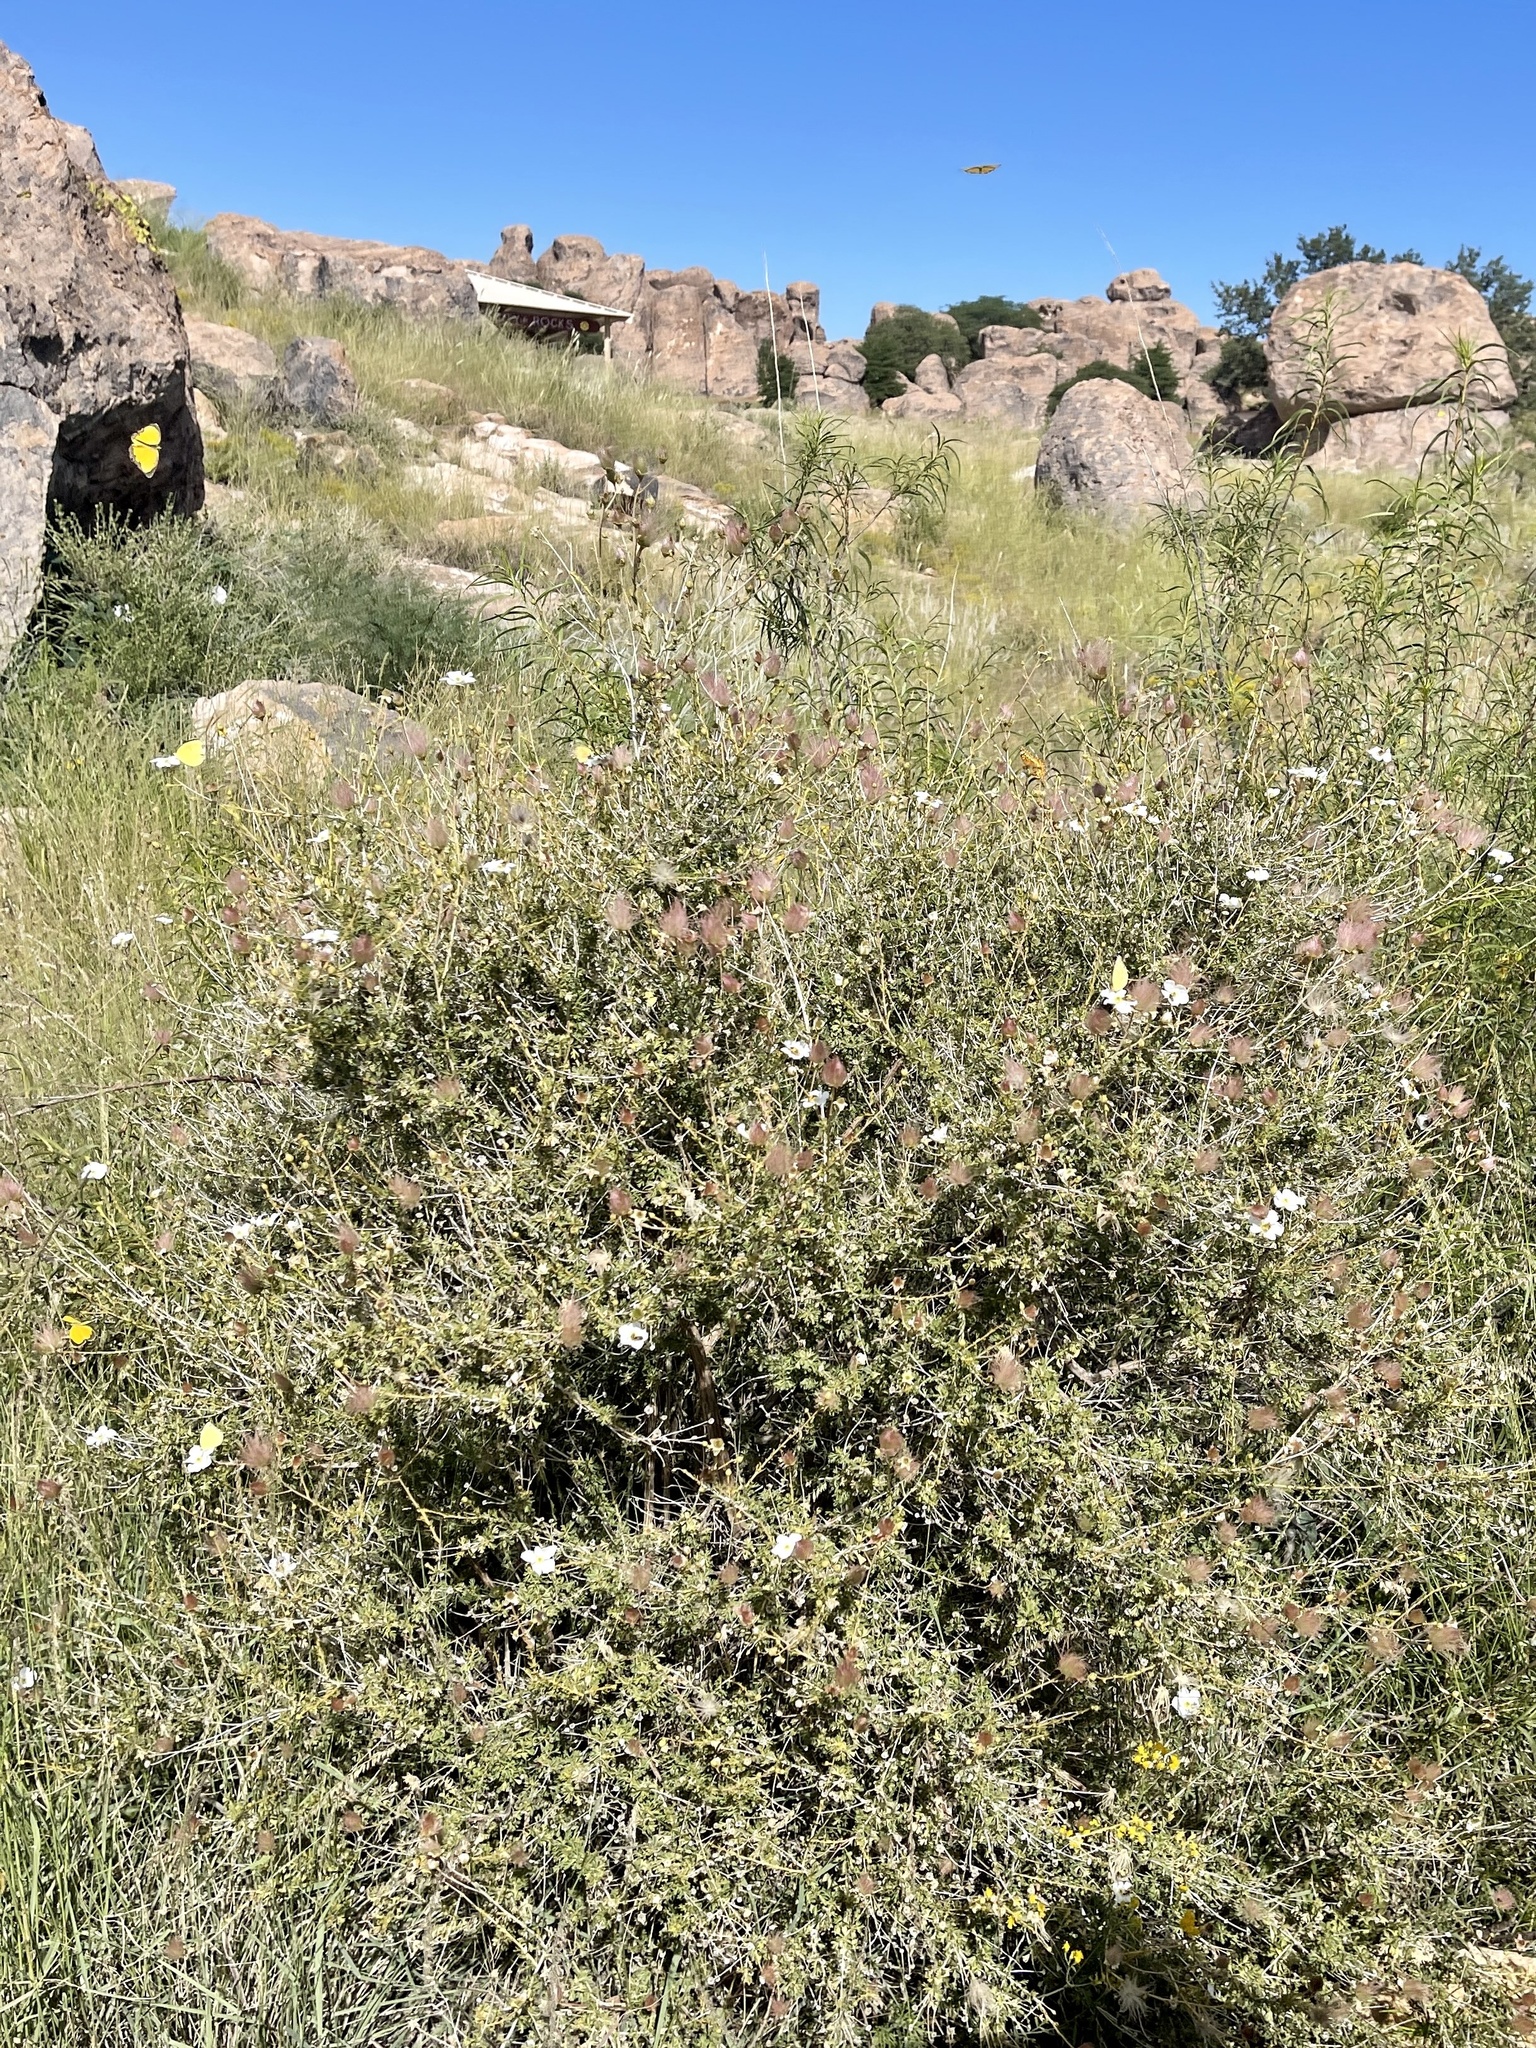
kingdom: Plantae
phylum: Tracheophyta
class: Magnoliopsida
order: Rosales
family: Rosaceae
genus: Fallugia
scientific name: Fallugia paradoxa
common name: Apache-plume
